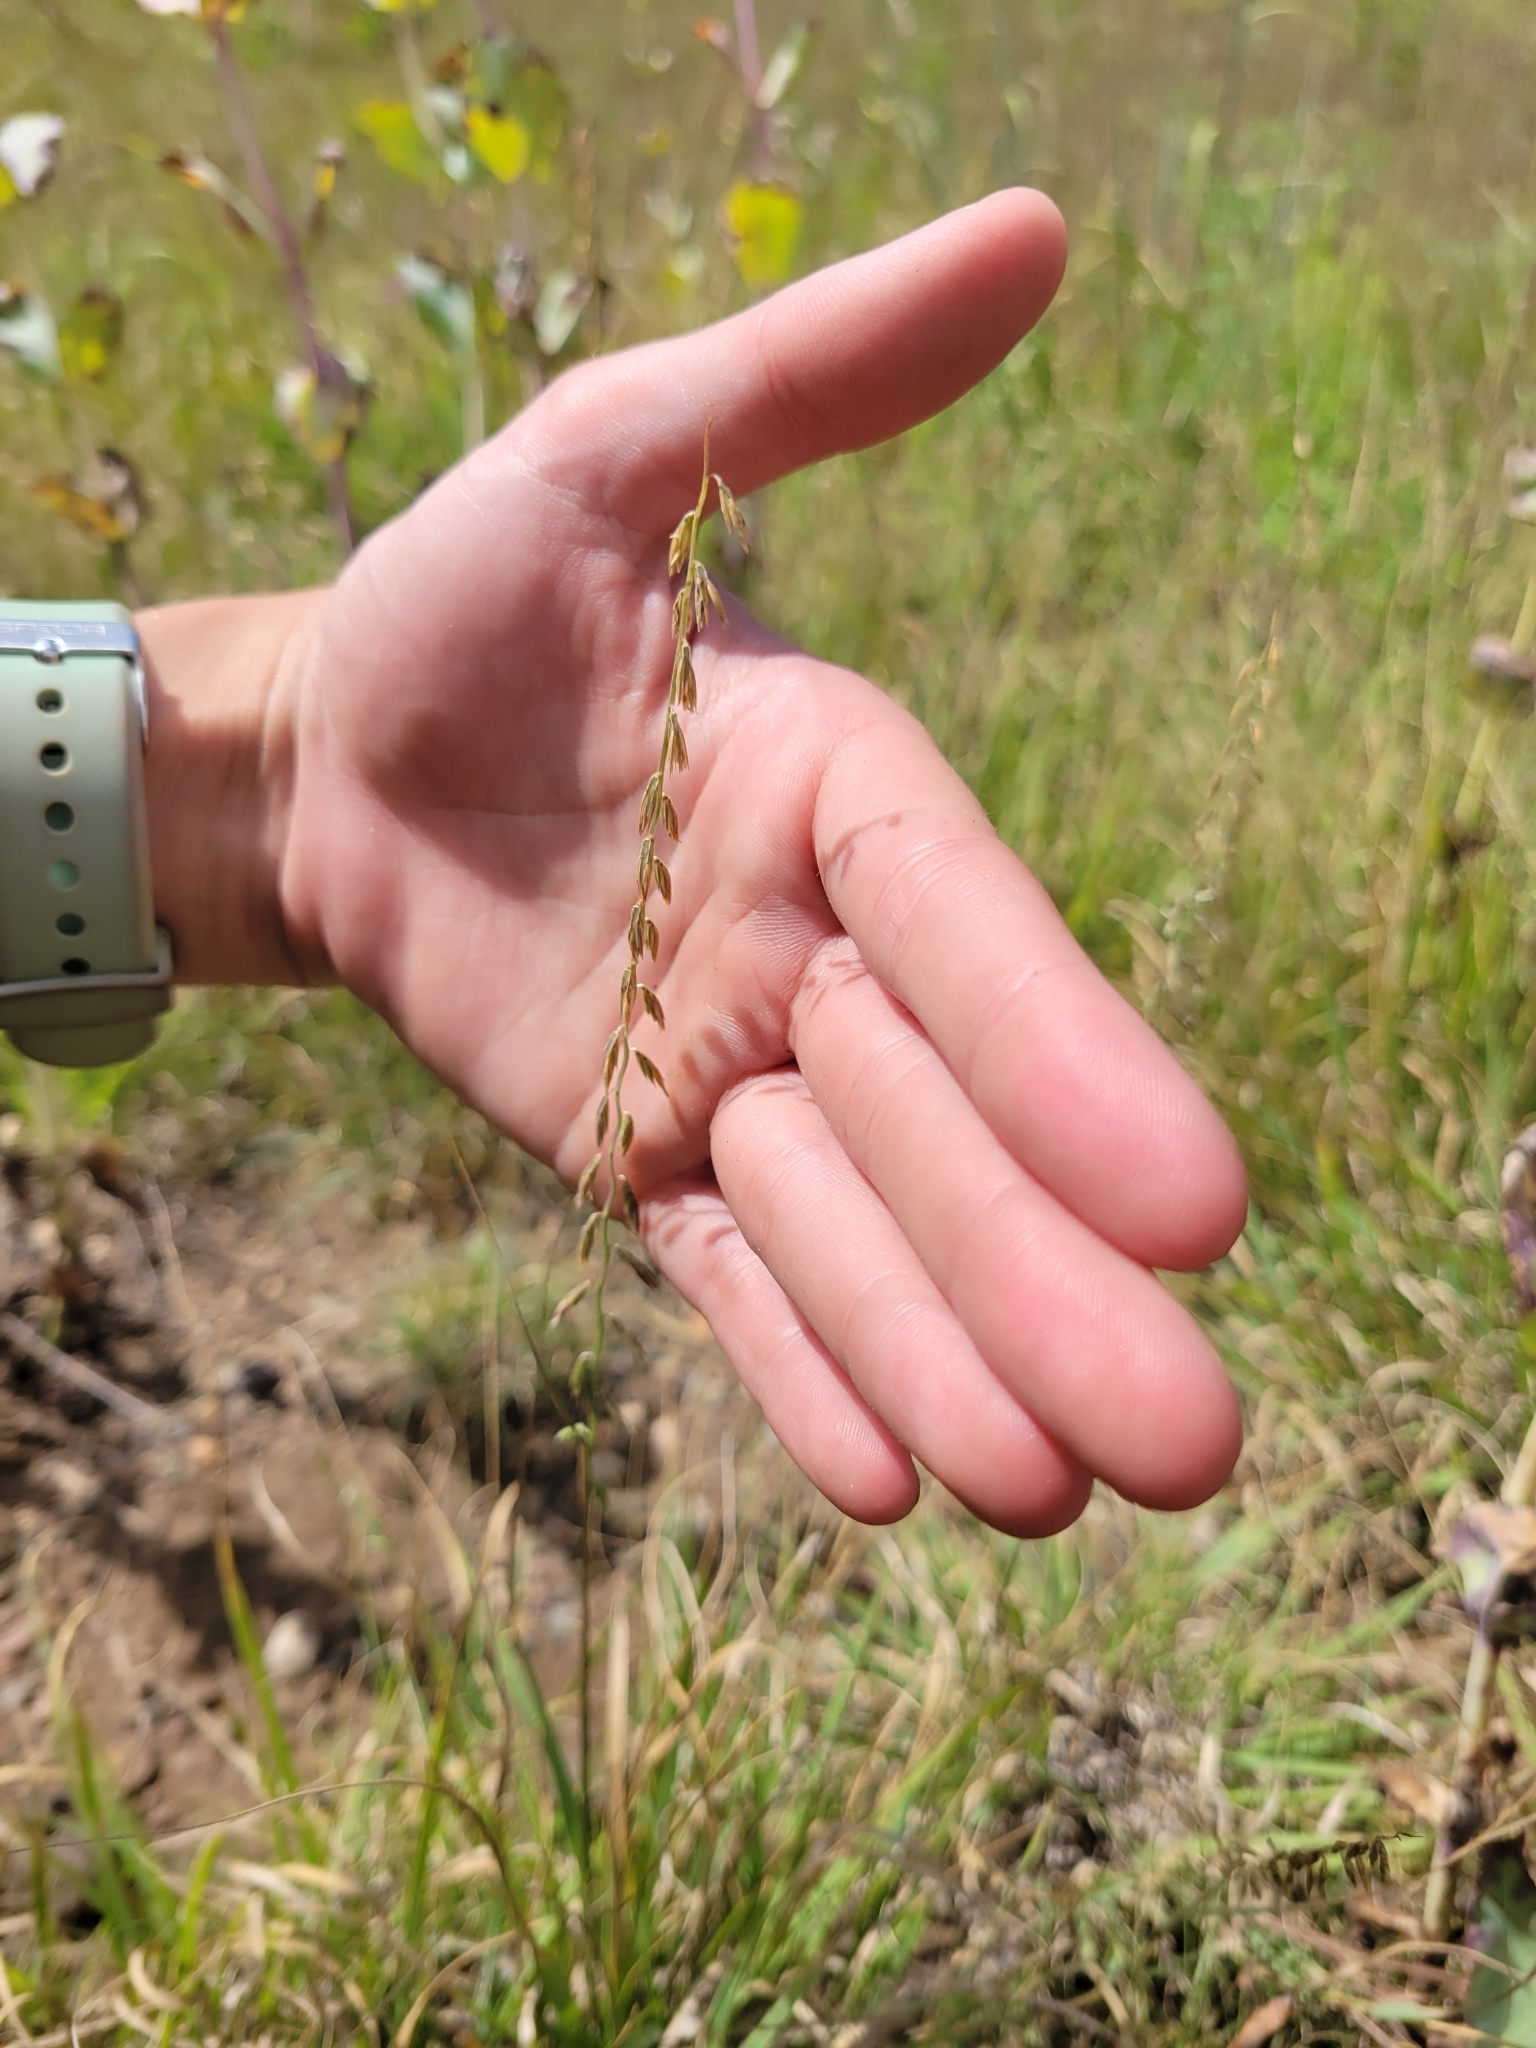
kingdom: Plantae
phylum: Tracheophyta
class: Liliopsida
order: Poales
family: Poaceae
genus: Bouteloua
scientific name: Bouteloua curtipendula
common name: Side-oats grama
